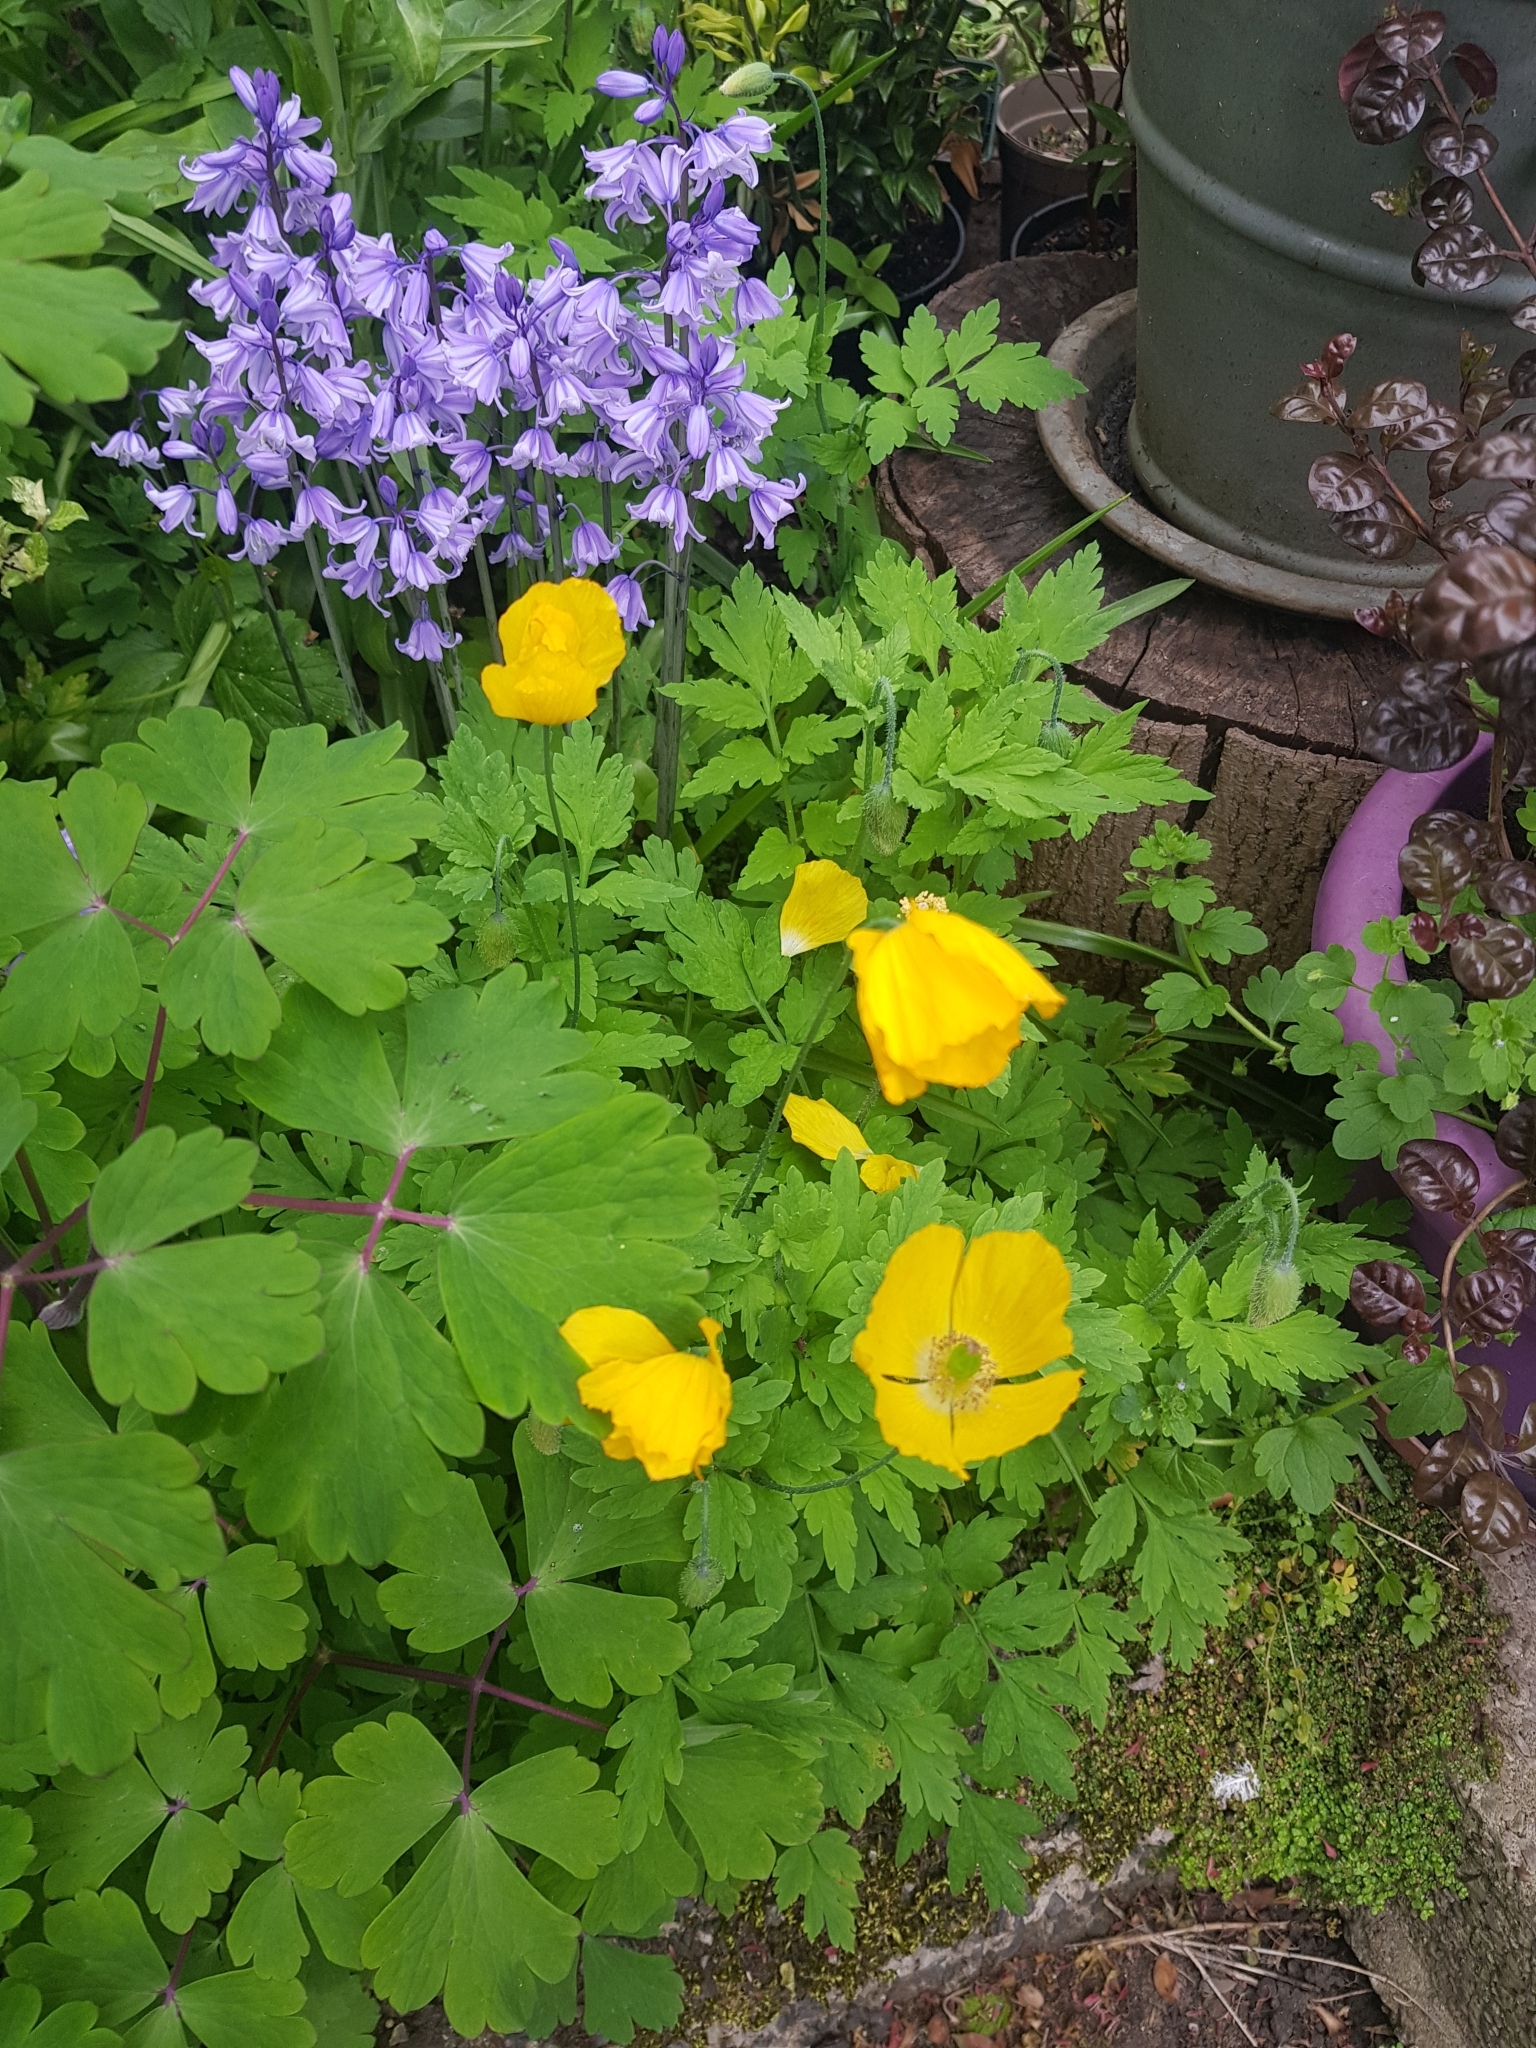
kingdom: Plantae
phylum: Tracheophyta
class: Magnoliopsida
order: Ranunculales
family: Papaveraceae
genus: Papaver
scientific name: Papaver cambricum
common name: Poppy
